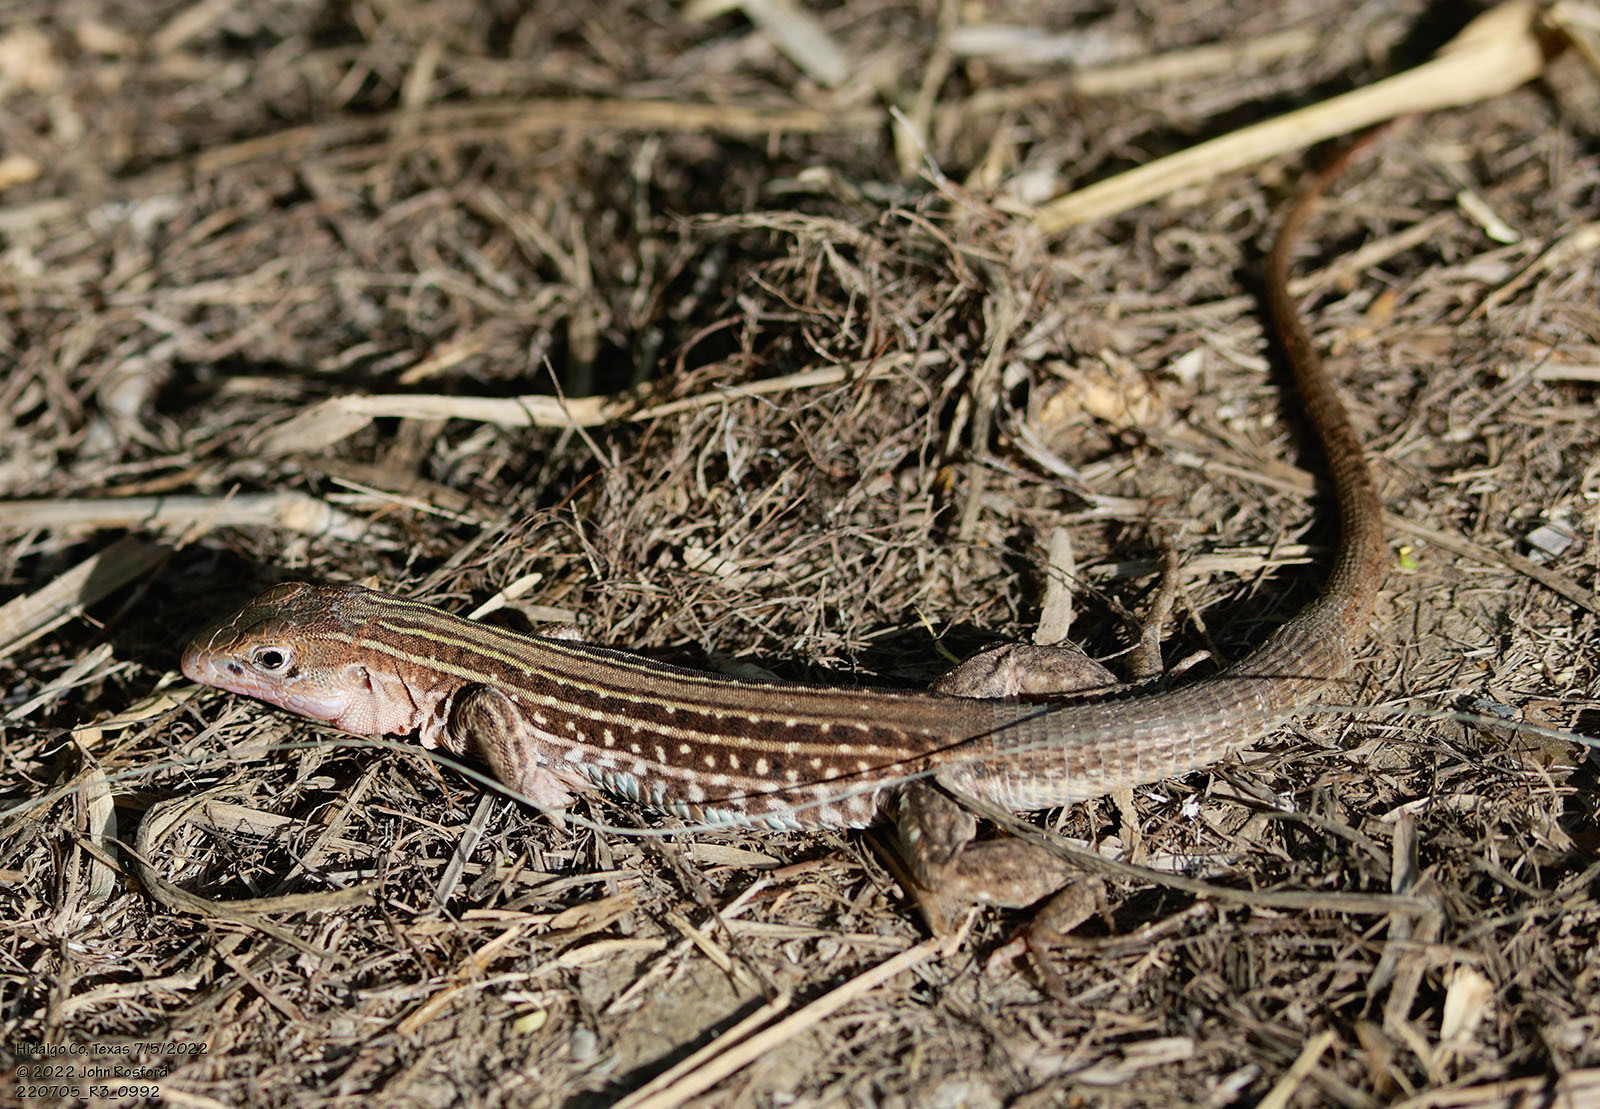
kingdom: Animalia
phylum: Chordata
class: Squamata
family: Teiidae
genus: Aspidoscelis
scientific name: Aspidoscelis gularis
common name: Eastern spotted whiptail
